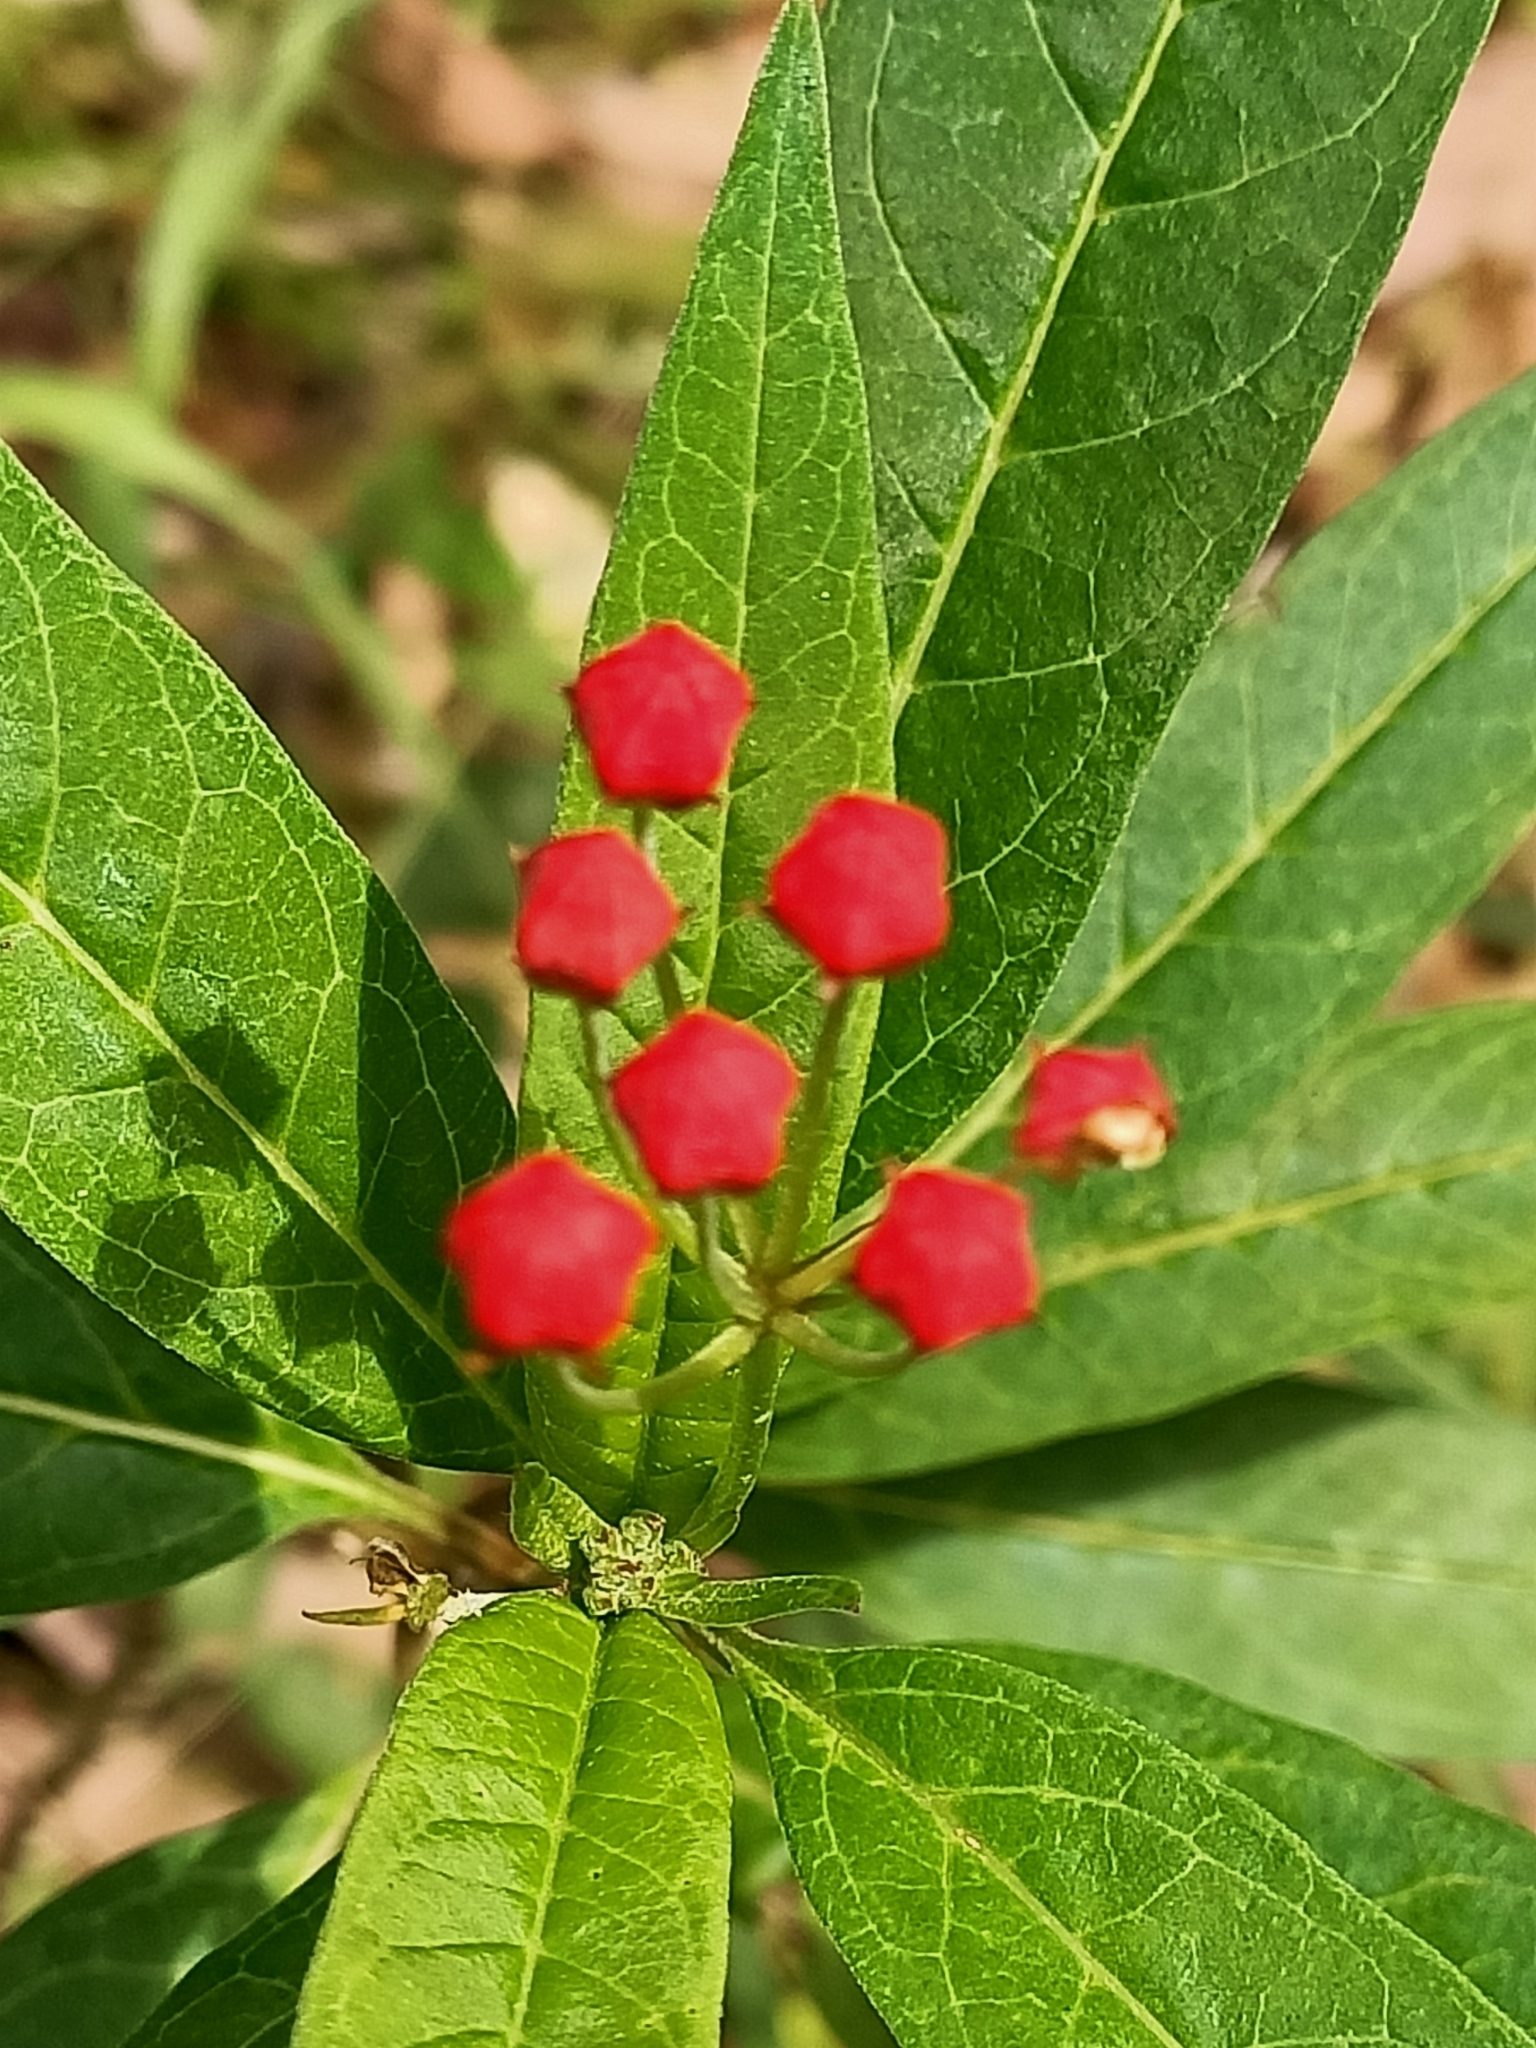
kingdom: Plantae
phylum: Tracheophyta
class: Magnoliopsida
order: Gentianales
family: Apocynaceae
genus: Asclepias
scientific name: Asclepias curassavica
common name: Bloodflower
